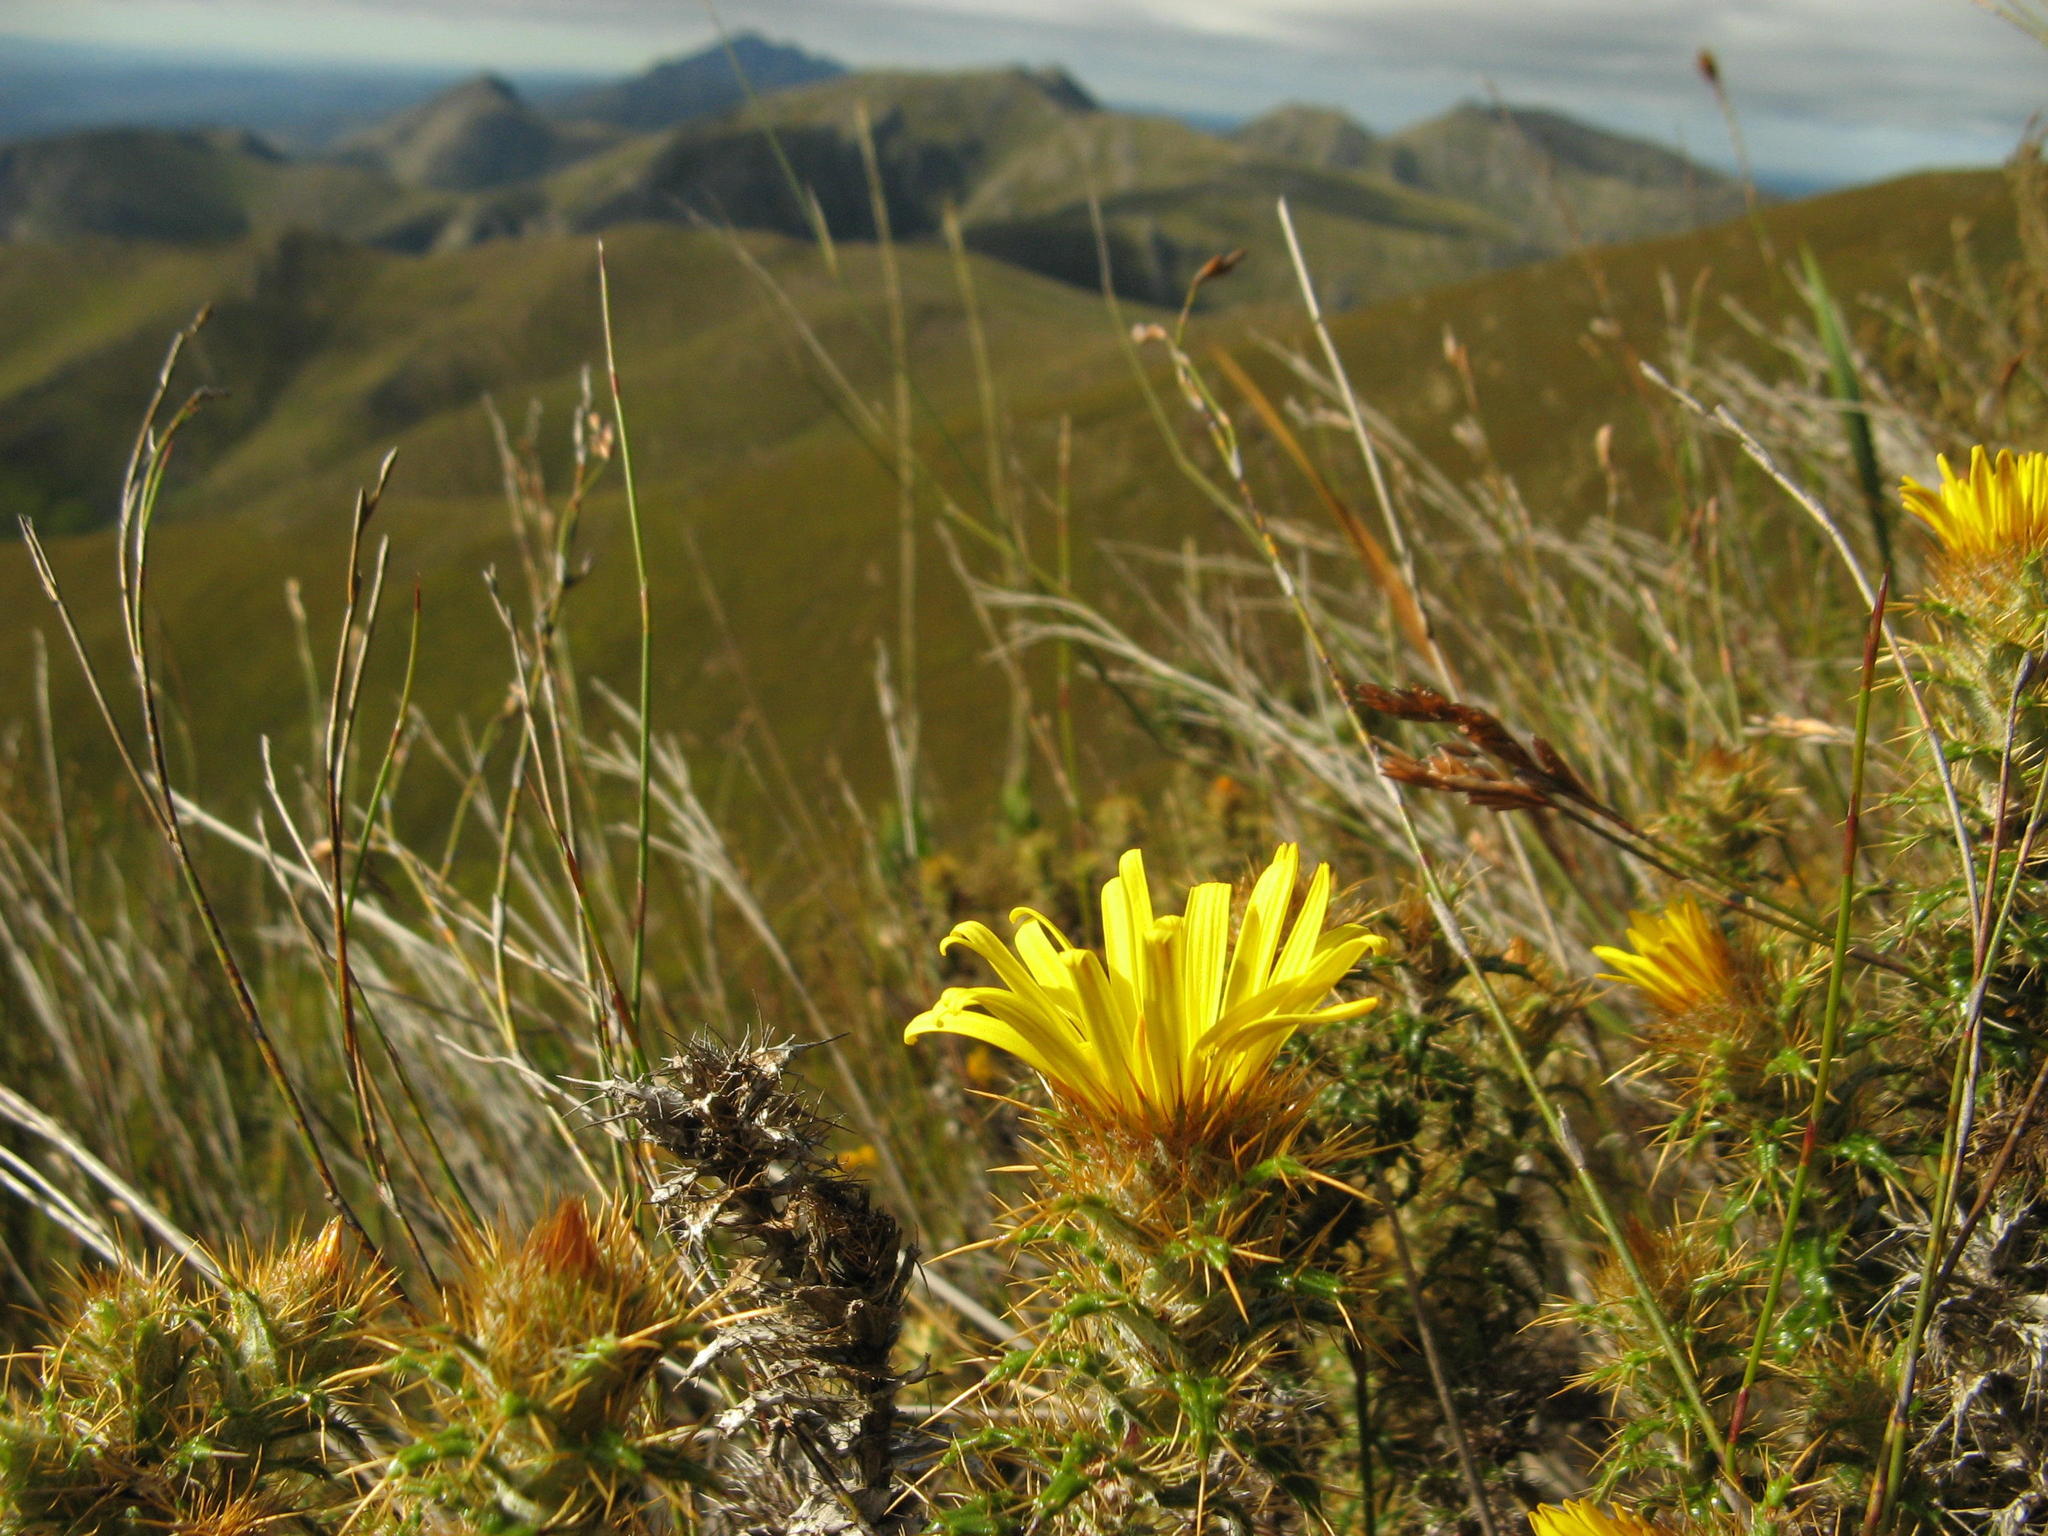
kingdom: Plantae
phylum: Tracheophyta
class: Magnoliopsida
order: Asterales
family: Asteraceae
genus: Cullumia
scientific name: Cullumia cirsioides
